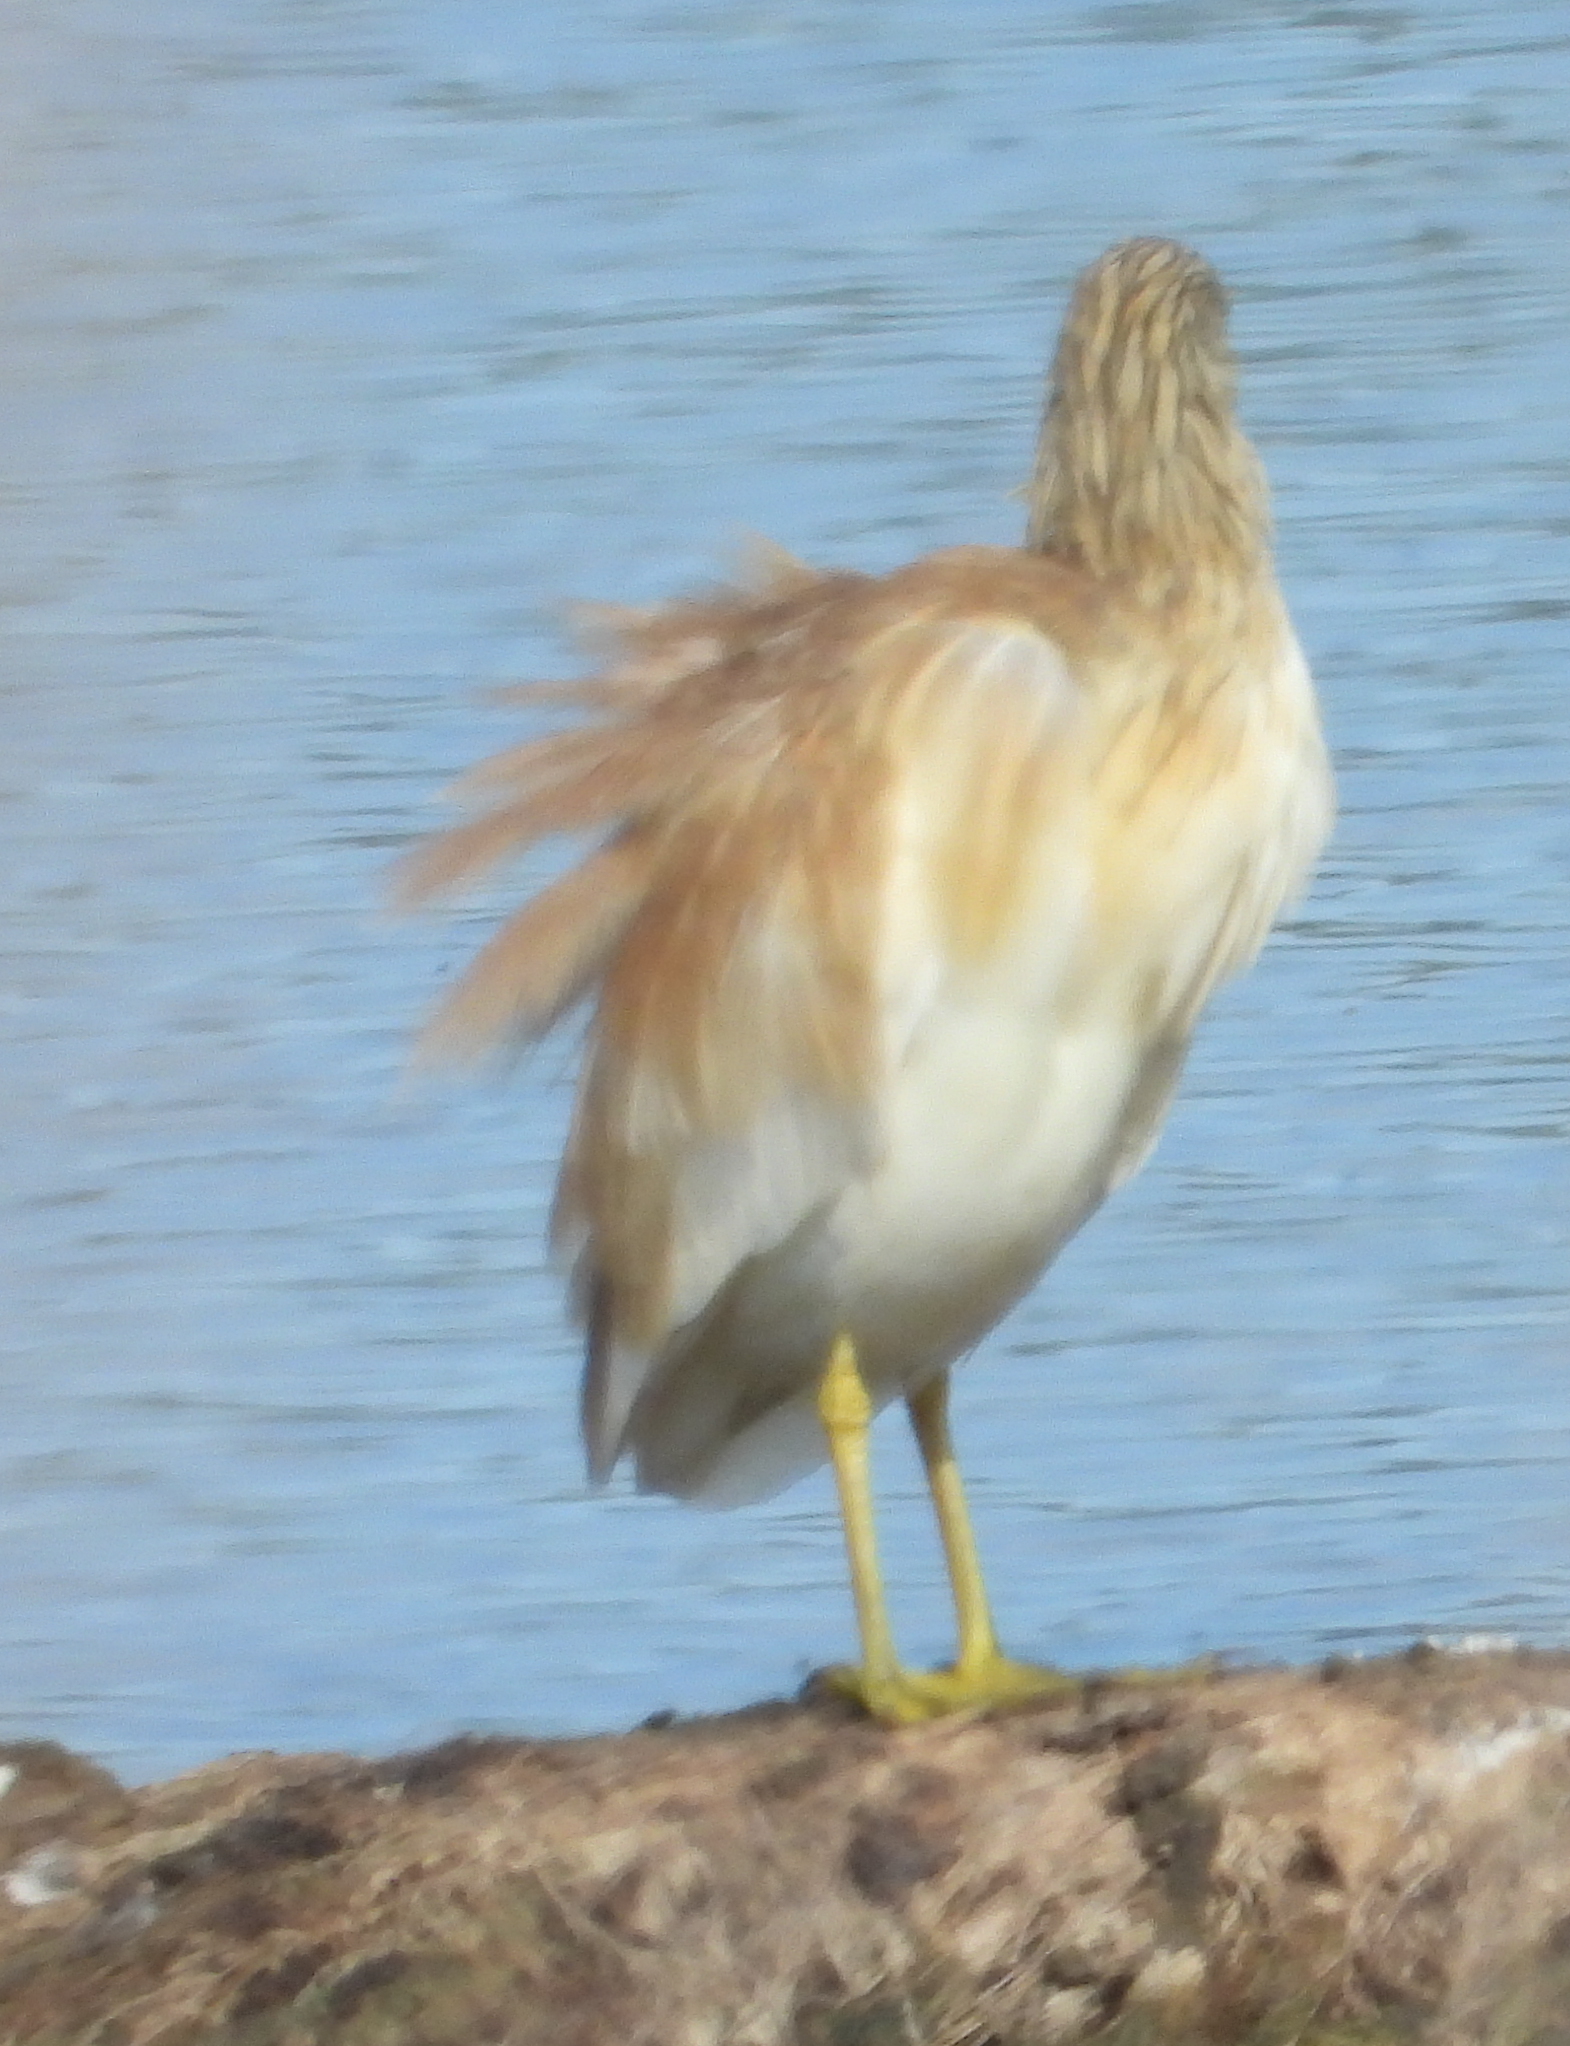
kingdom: Animalia
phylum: Chordata
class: Aves
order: Pelecaniformes
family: Ardeidae
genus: Ardeola
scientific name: Ardeola ralloides
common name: Squacco heron
